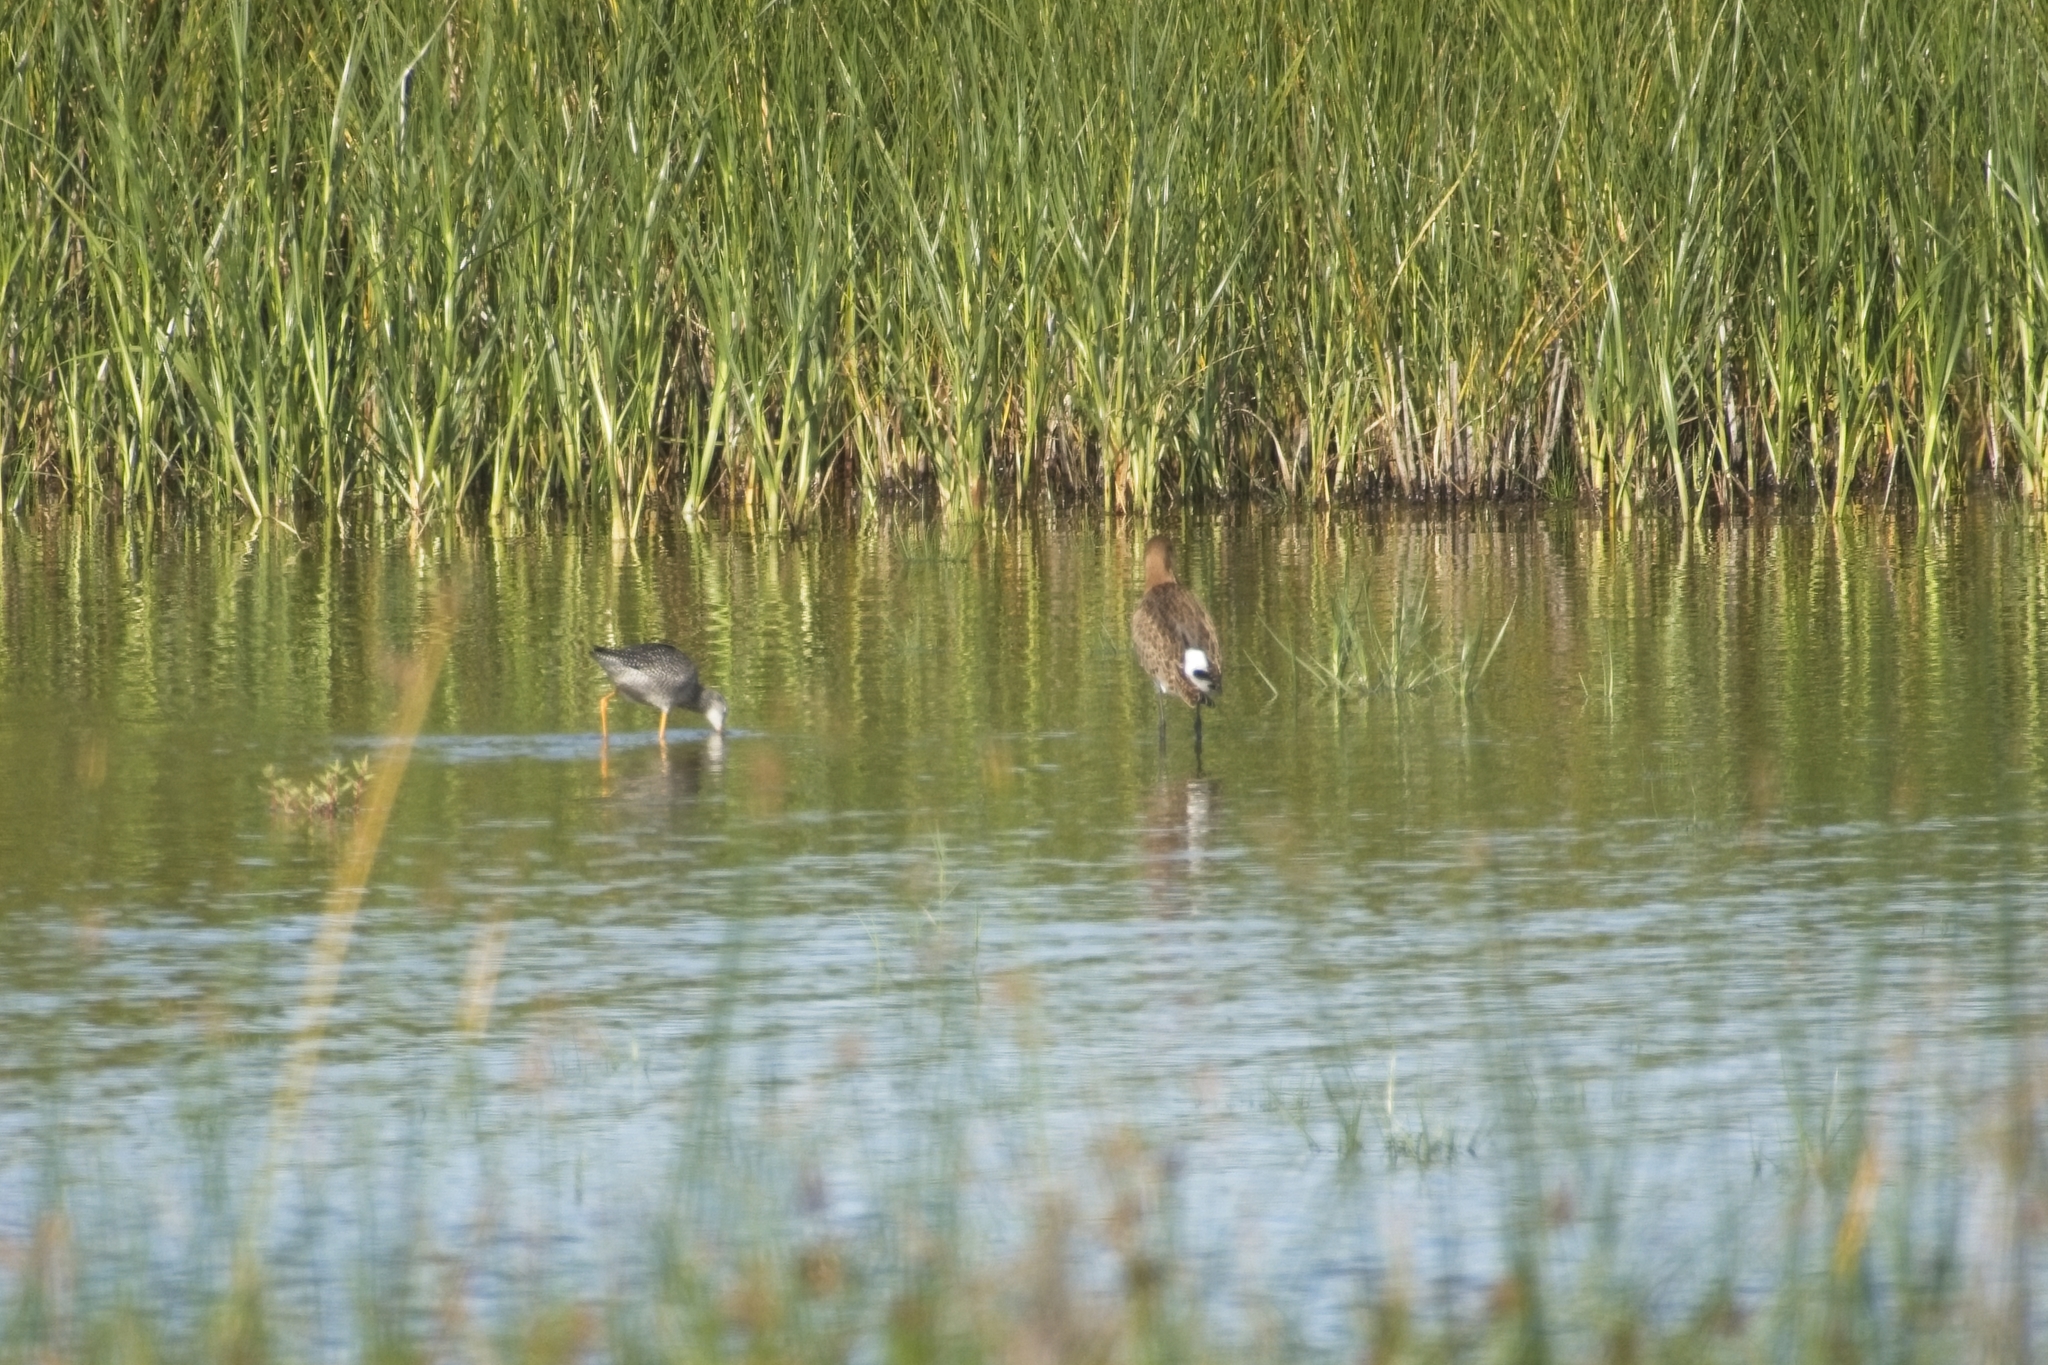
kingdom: Animalia
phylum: Chordata
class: Aves
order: Charadriiformes
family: Scolopacidae
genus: Limosa
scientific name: Limosa limosa
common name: Black-tailed godwit
